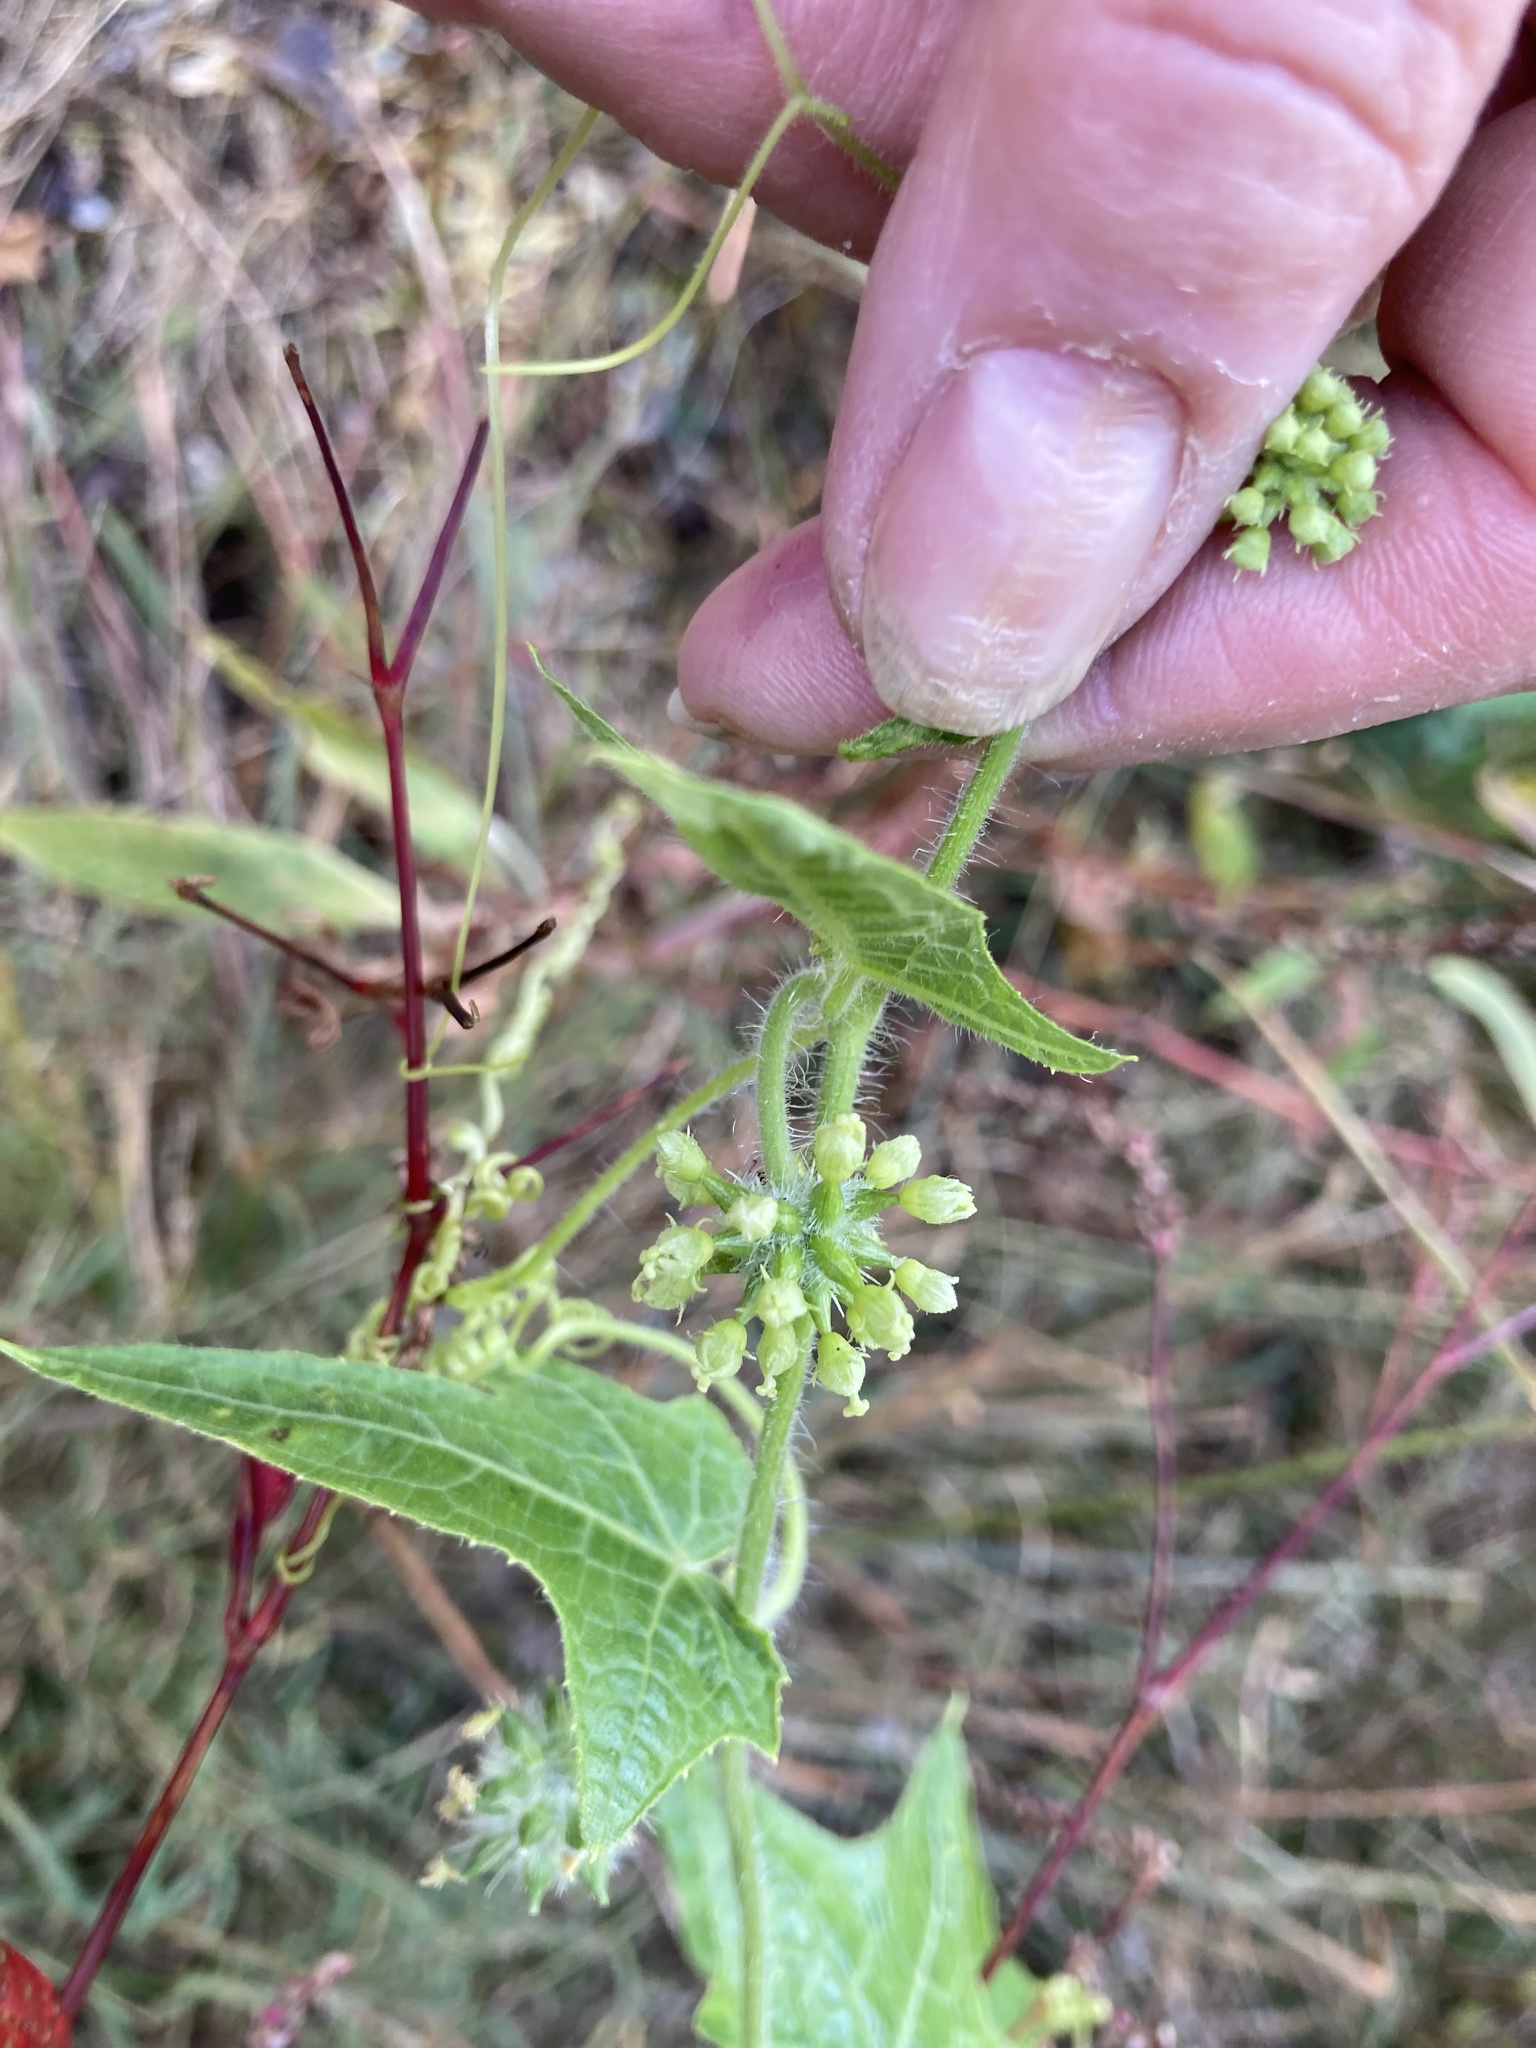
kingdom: Plantae
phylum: Tracheophyta
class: Magnoliopsida
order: Cucurbitales
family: Cucurbitaceae
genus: Sicyos
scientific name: Sicyos angulatus
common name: Angled burr cucumber
